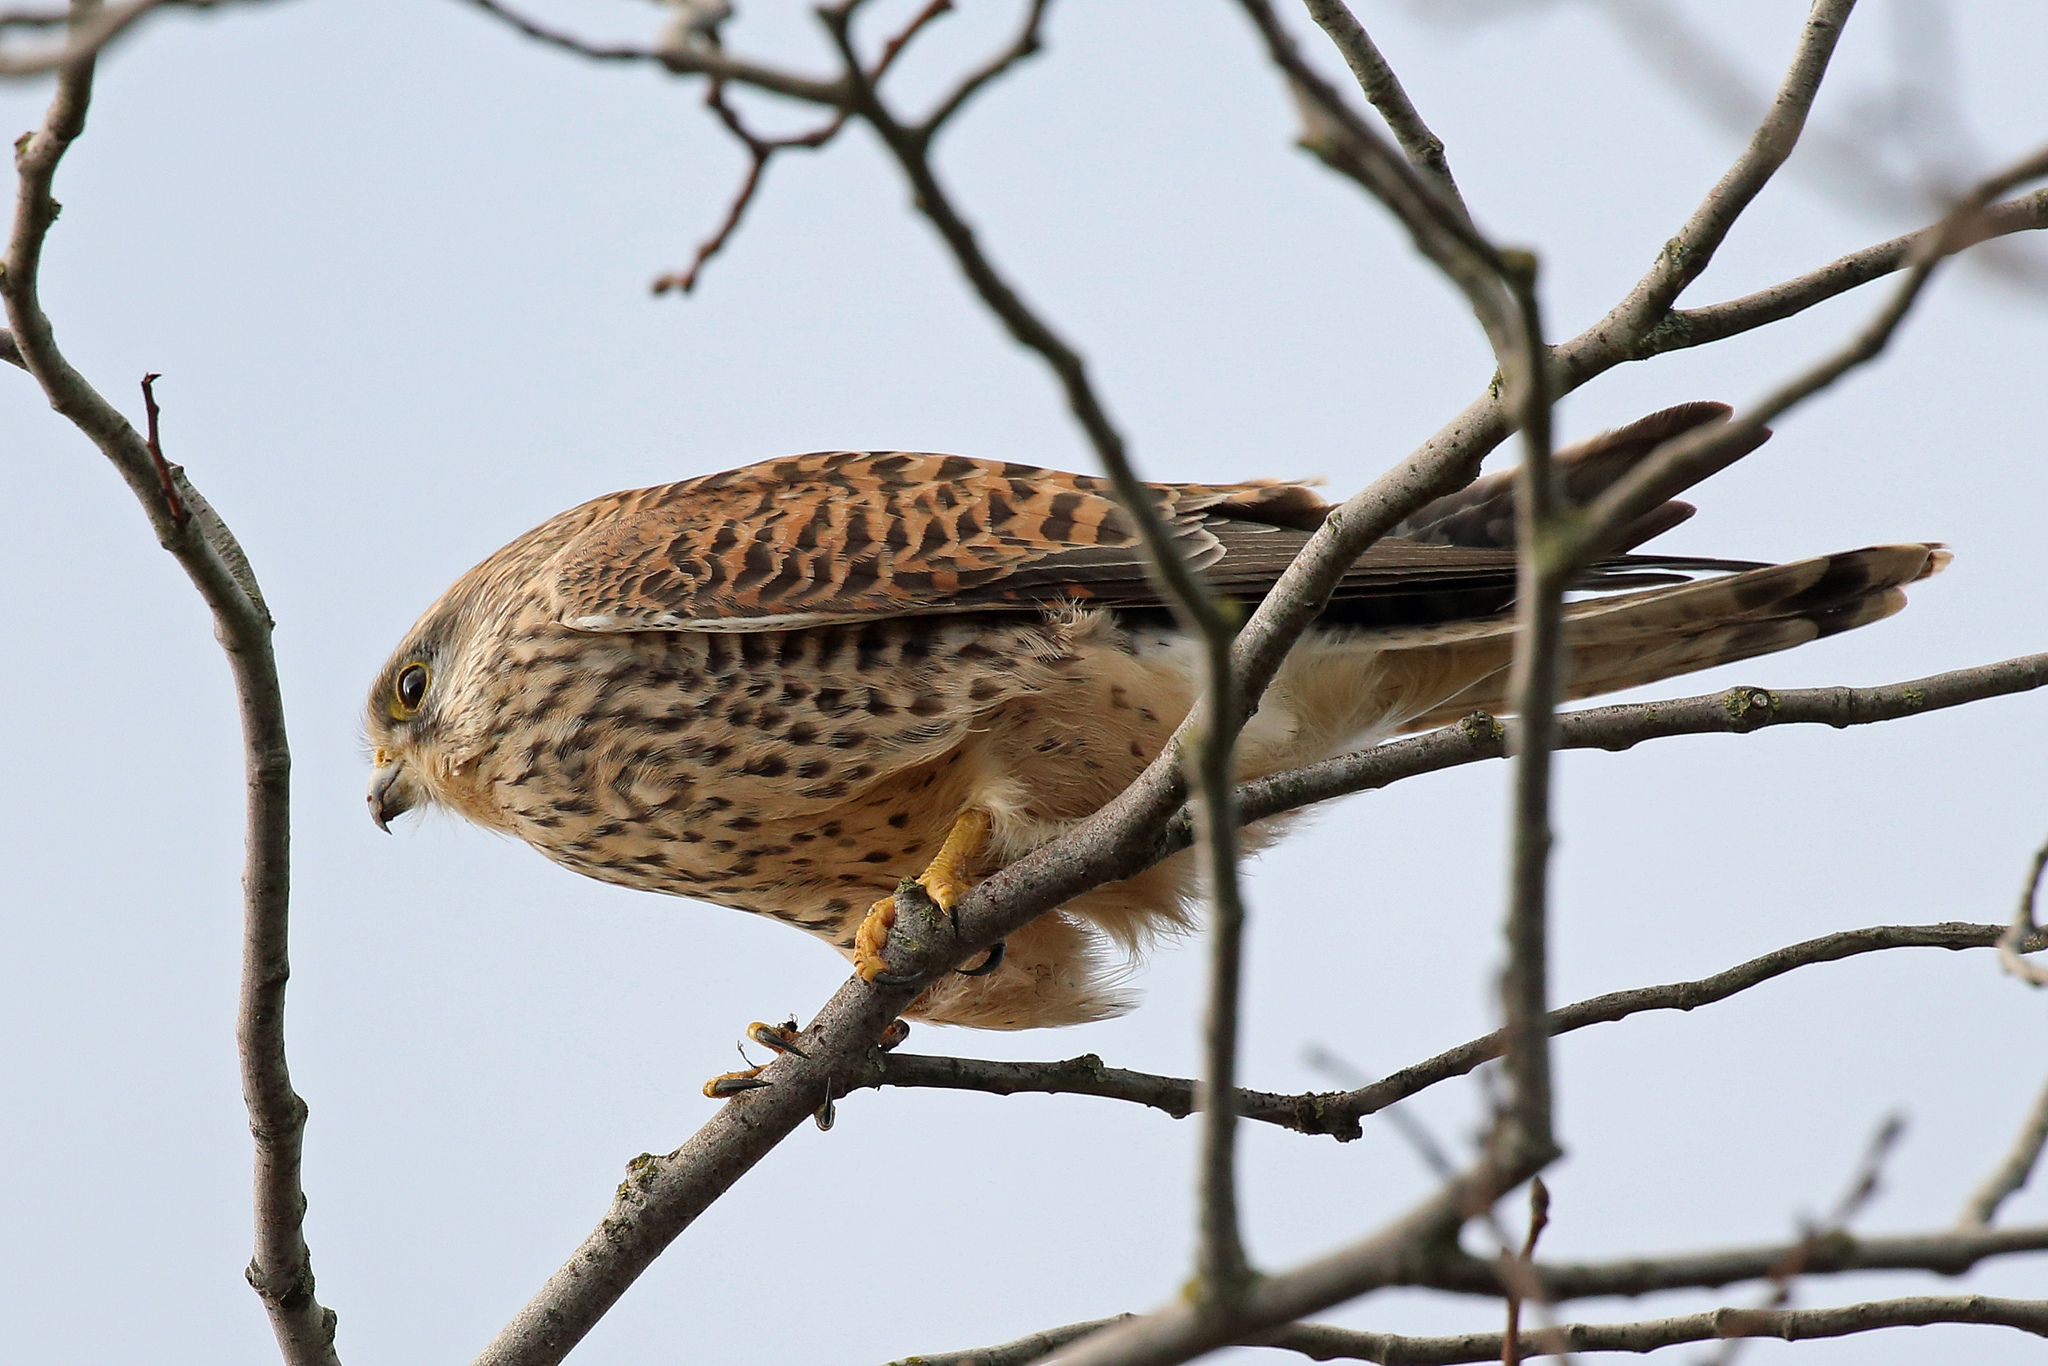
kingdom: Animalia
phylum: Chordata
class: Aves
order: Falconiformes
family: Falconidae
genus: Falco
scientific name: Falco tinnunculus
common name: Common kestrel
